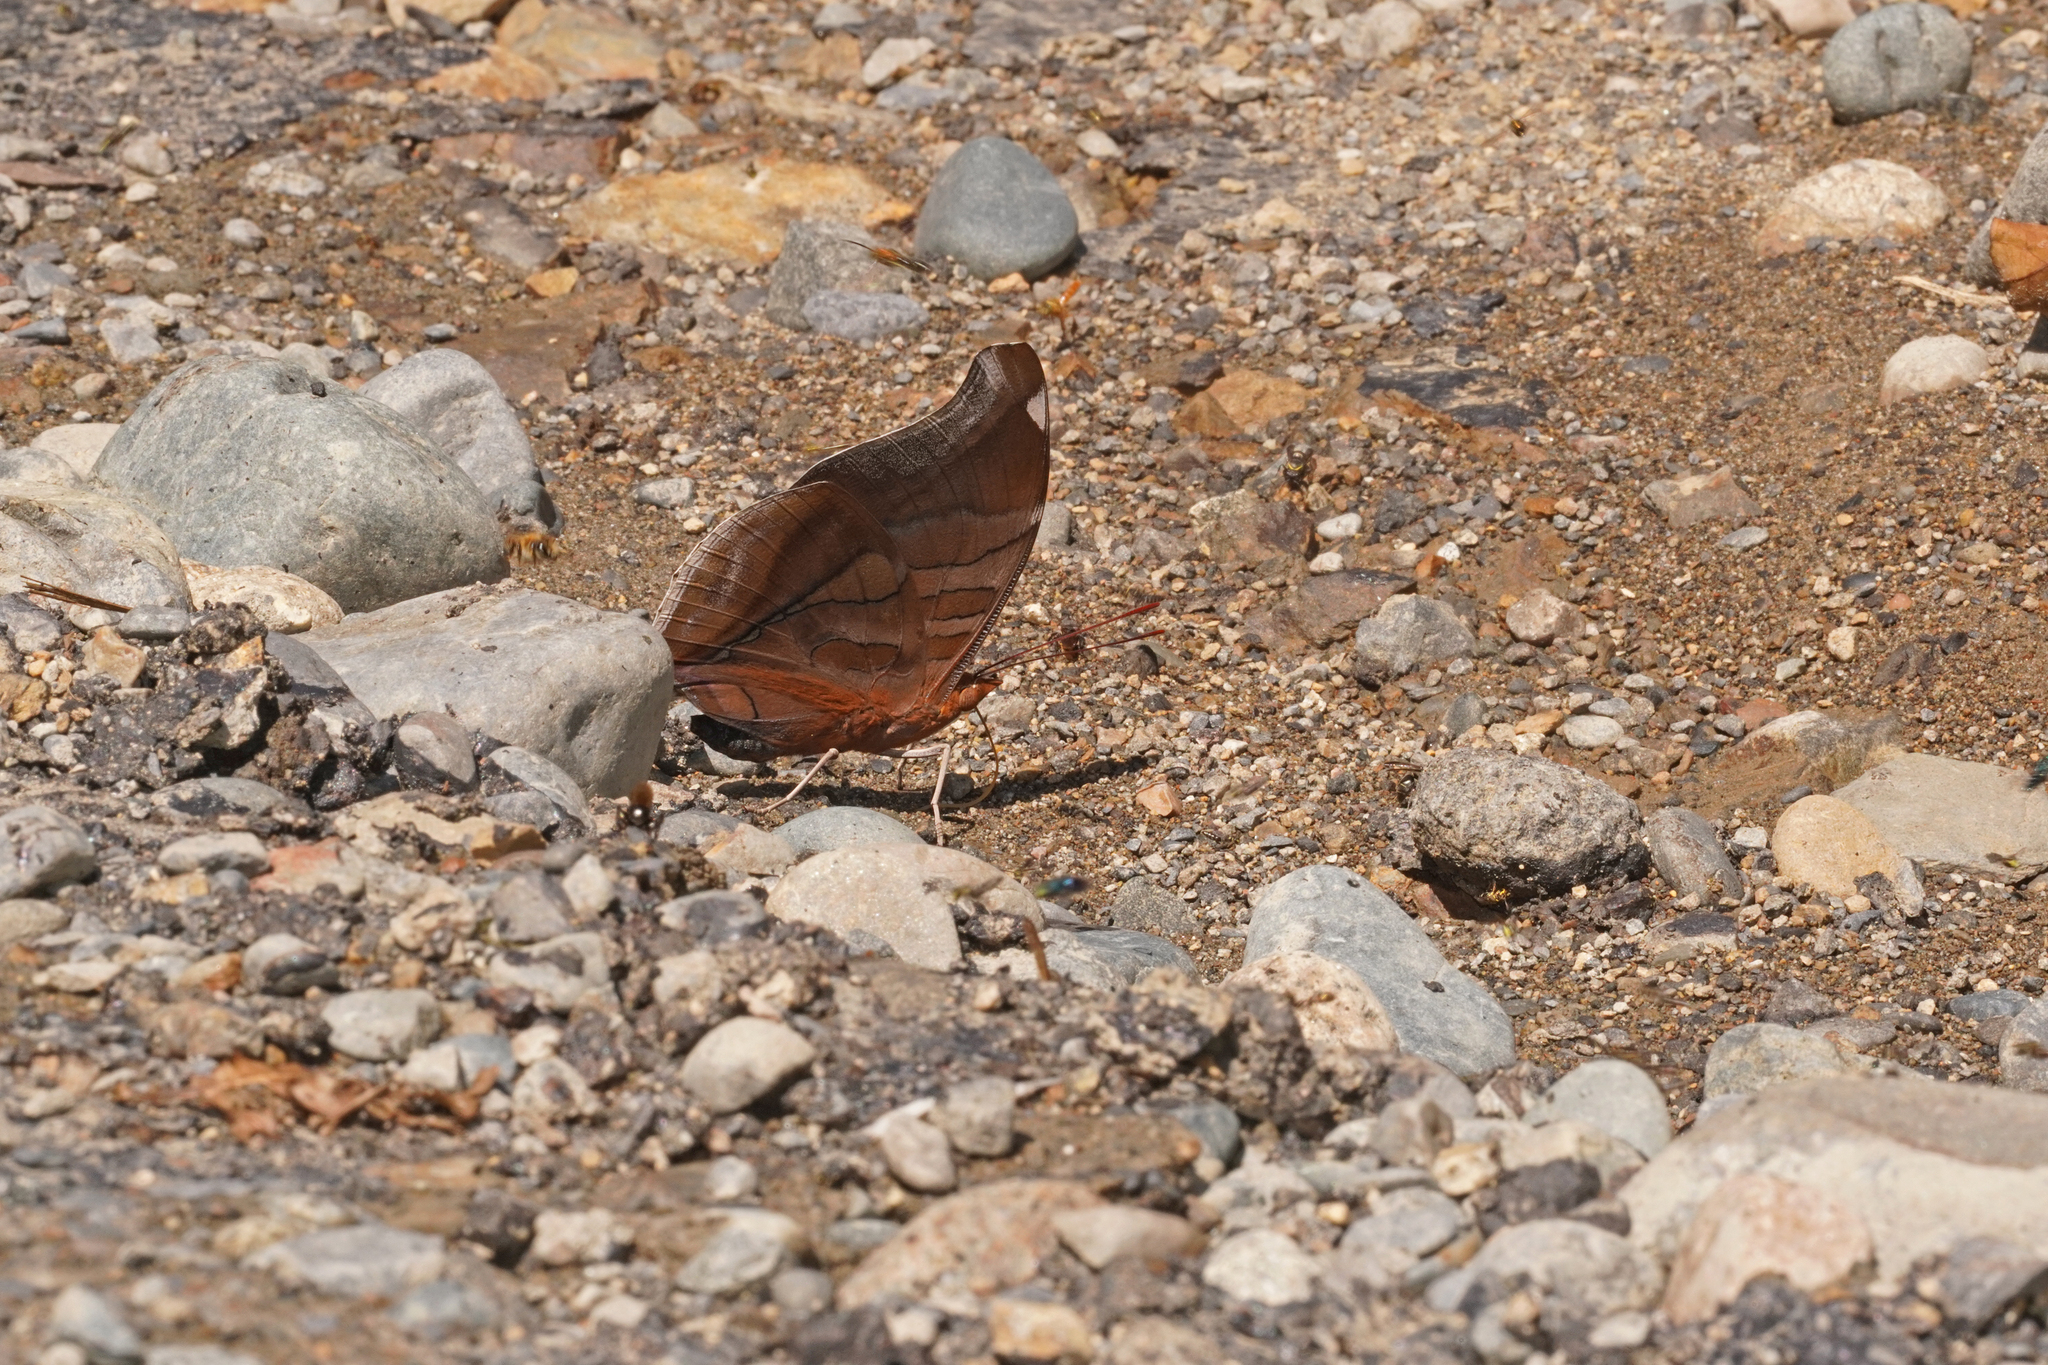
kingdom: Animalia
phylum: Arthropoda
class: Insecta
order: Lepidoptera
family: Nymphalidae
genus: Historis
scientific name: Historis odius
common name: Orion cecropian
